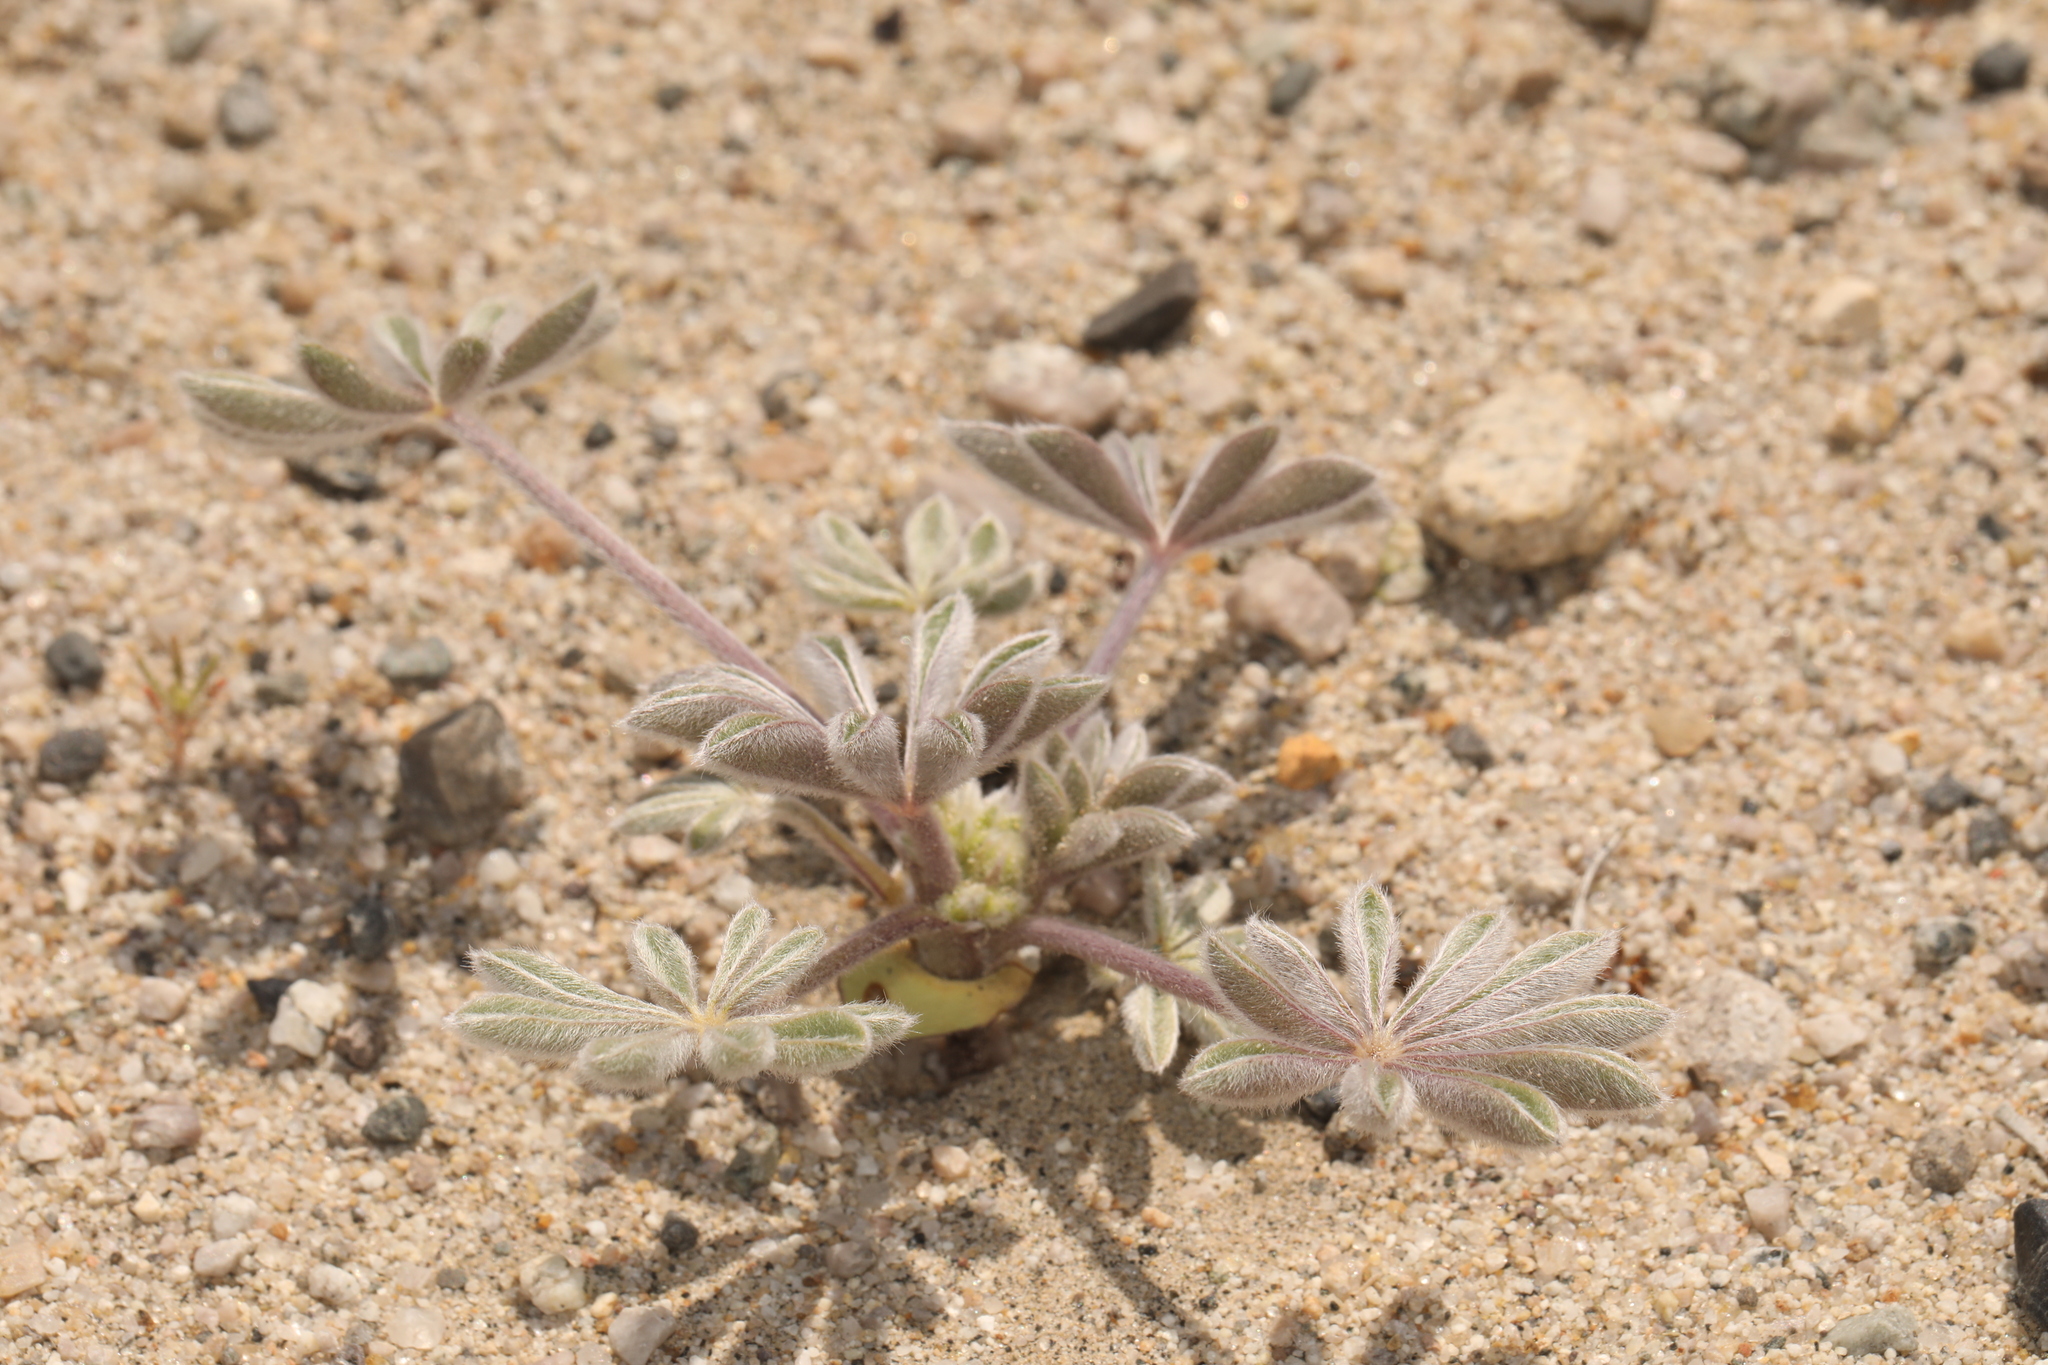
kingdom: Plantae
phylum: Tracheophyta
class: Magnoliopsida
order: Fabales
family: Fabaceae
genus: Lupinus
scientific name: Lupinus shockleyi
